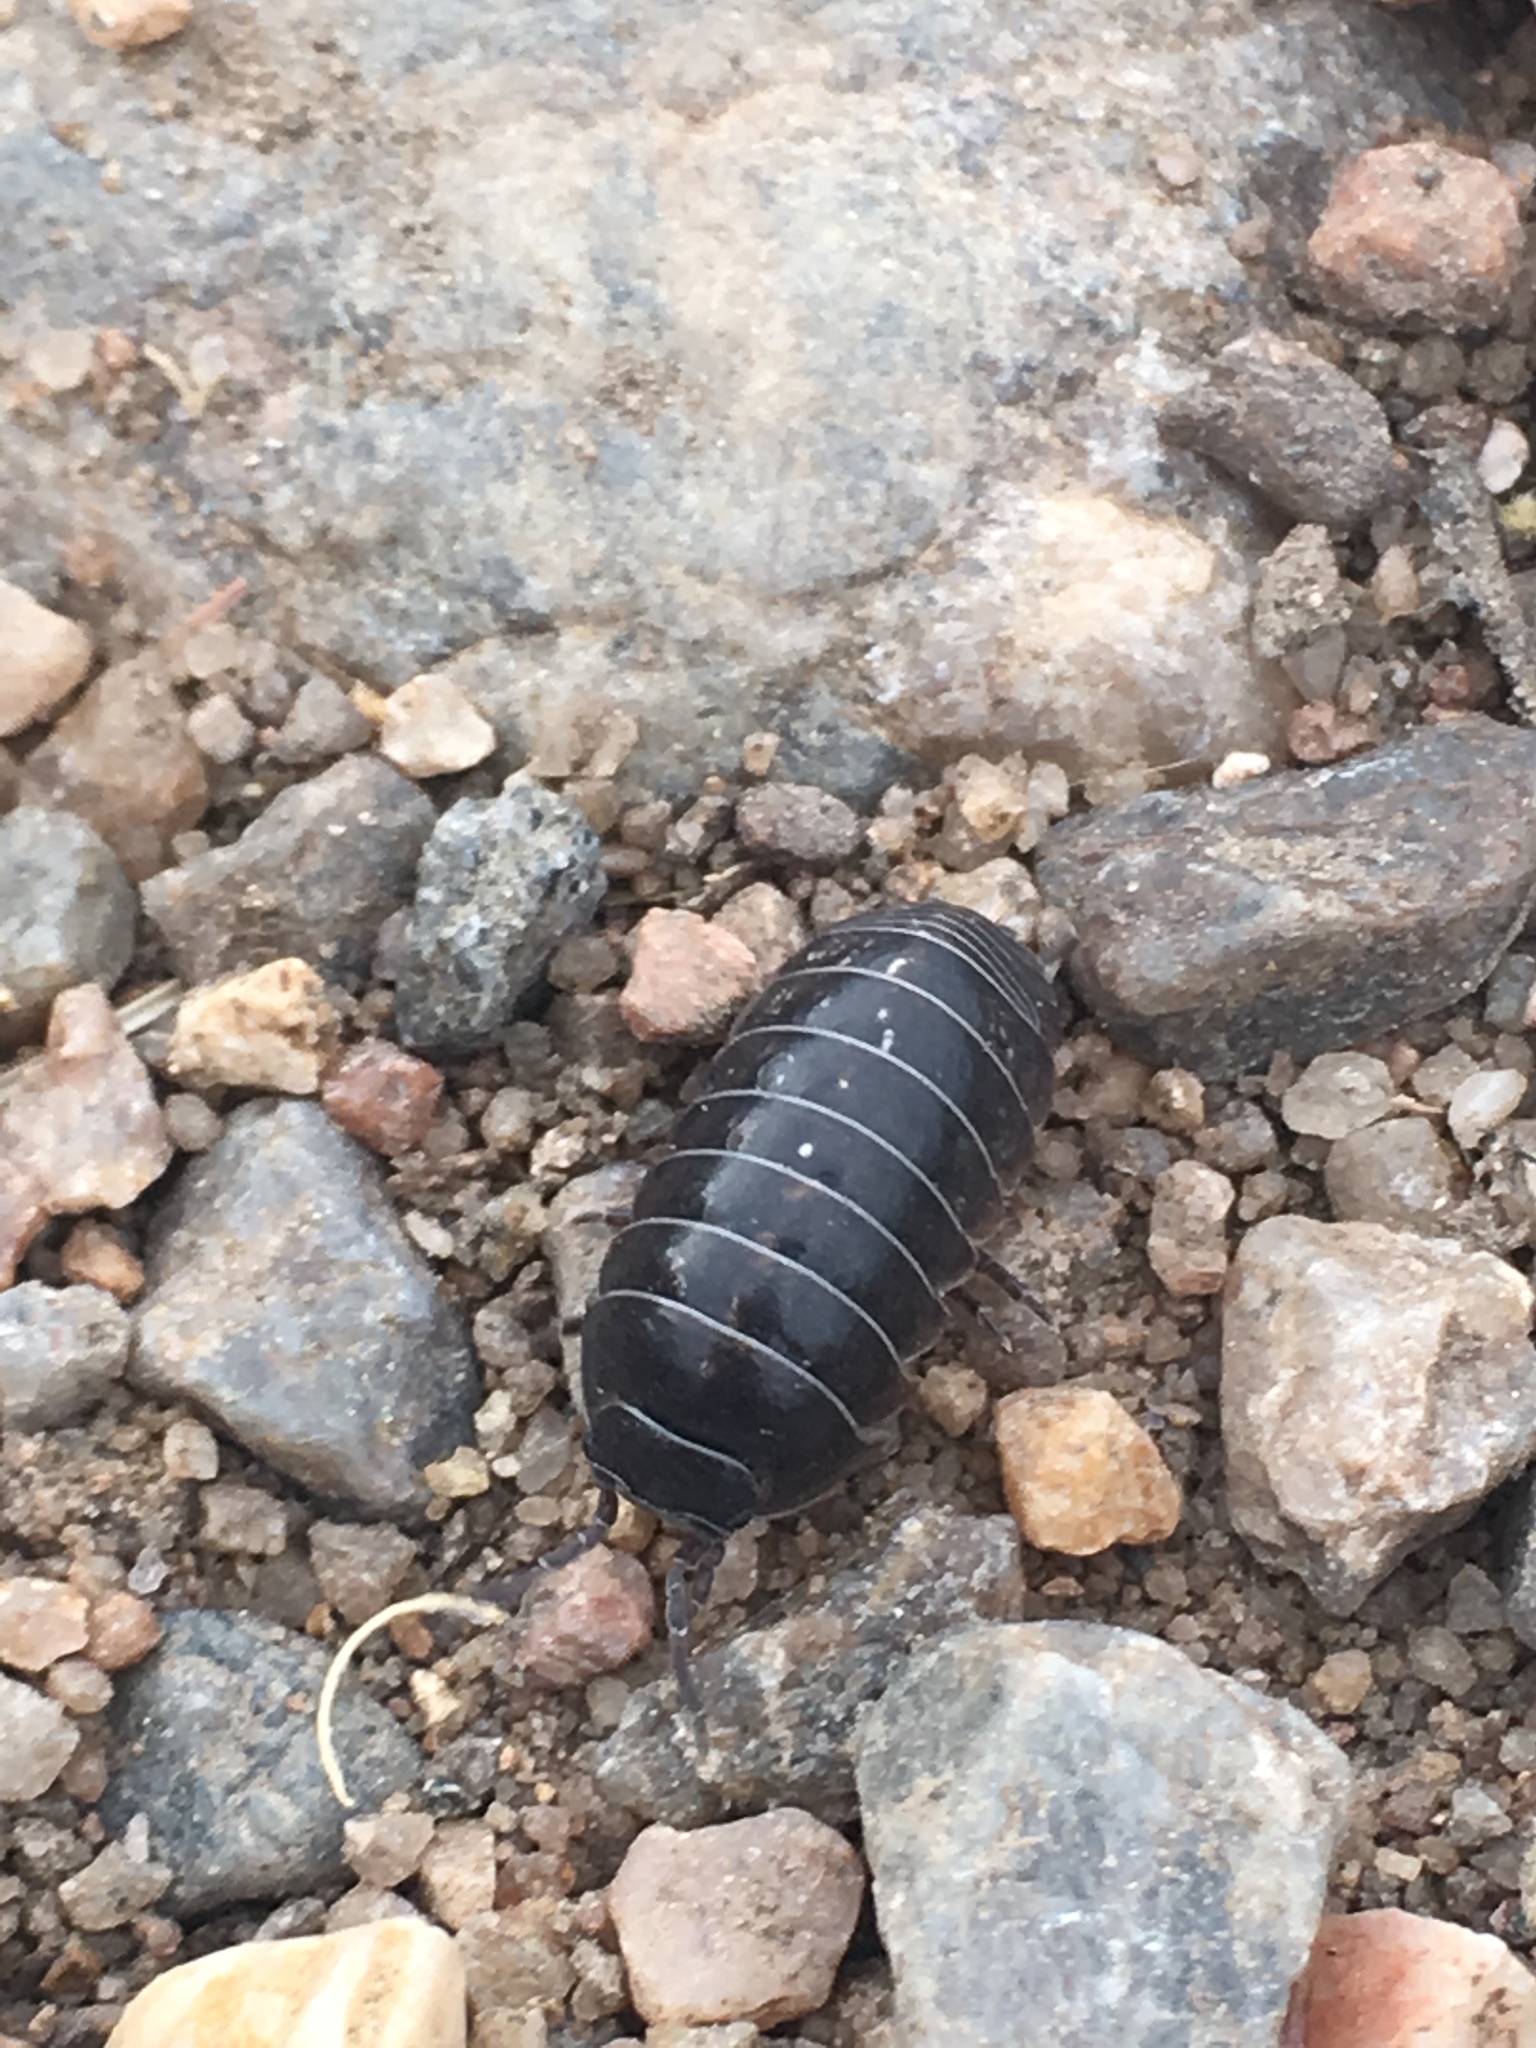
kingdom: Animalia
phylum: Arthropoda
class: Malacostraca
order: Isopoda
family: Armadillidiidae
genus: Armadillidium
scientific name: Armadillidium vulgare
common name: Common pill woodlouse
